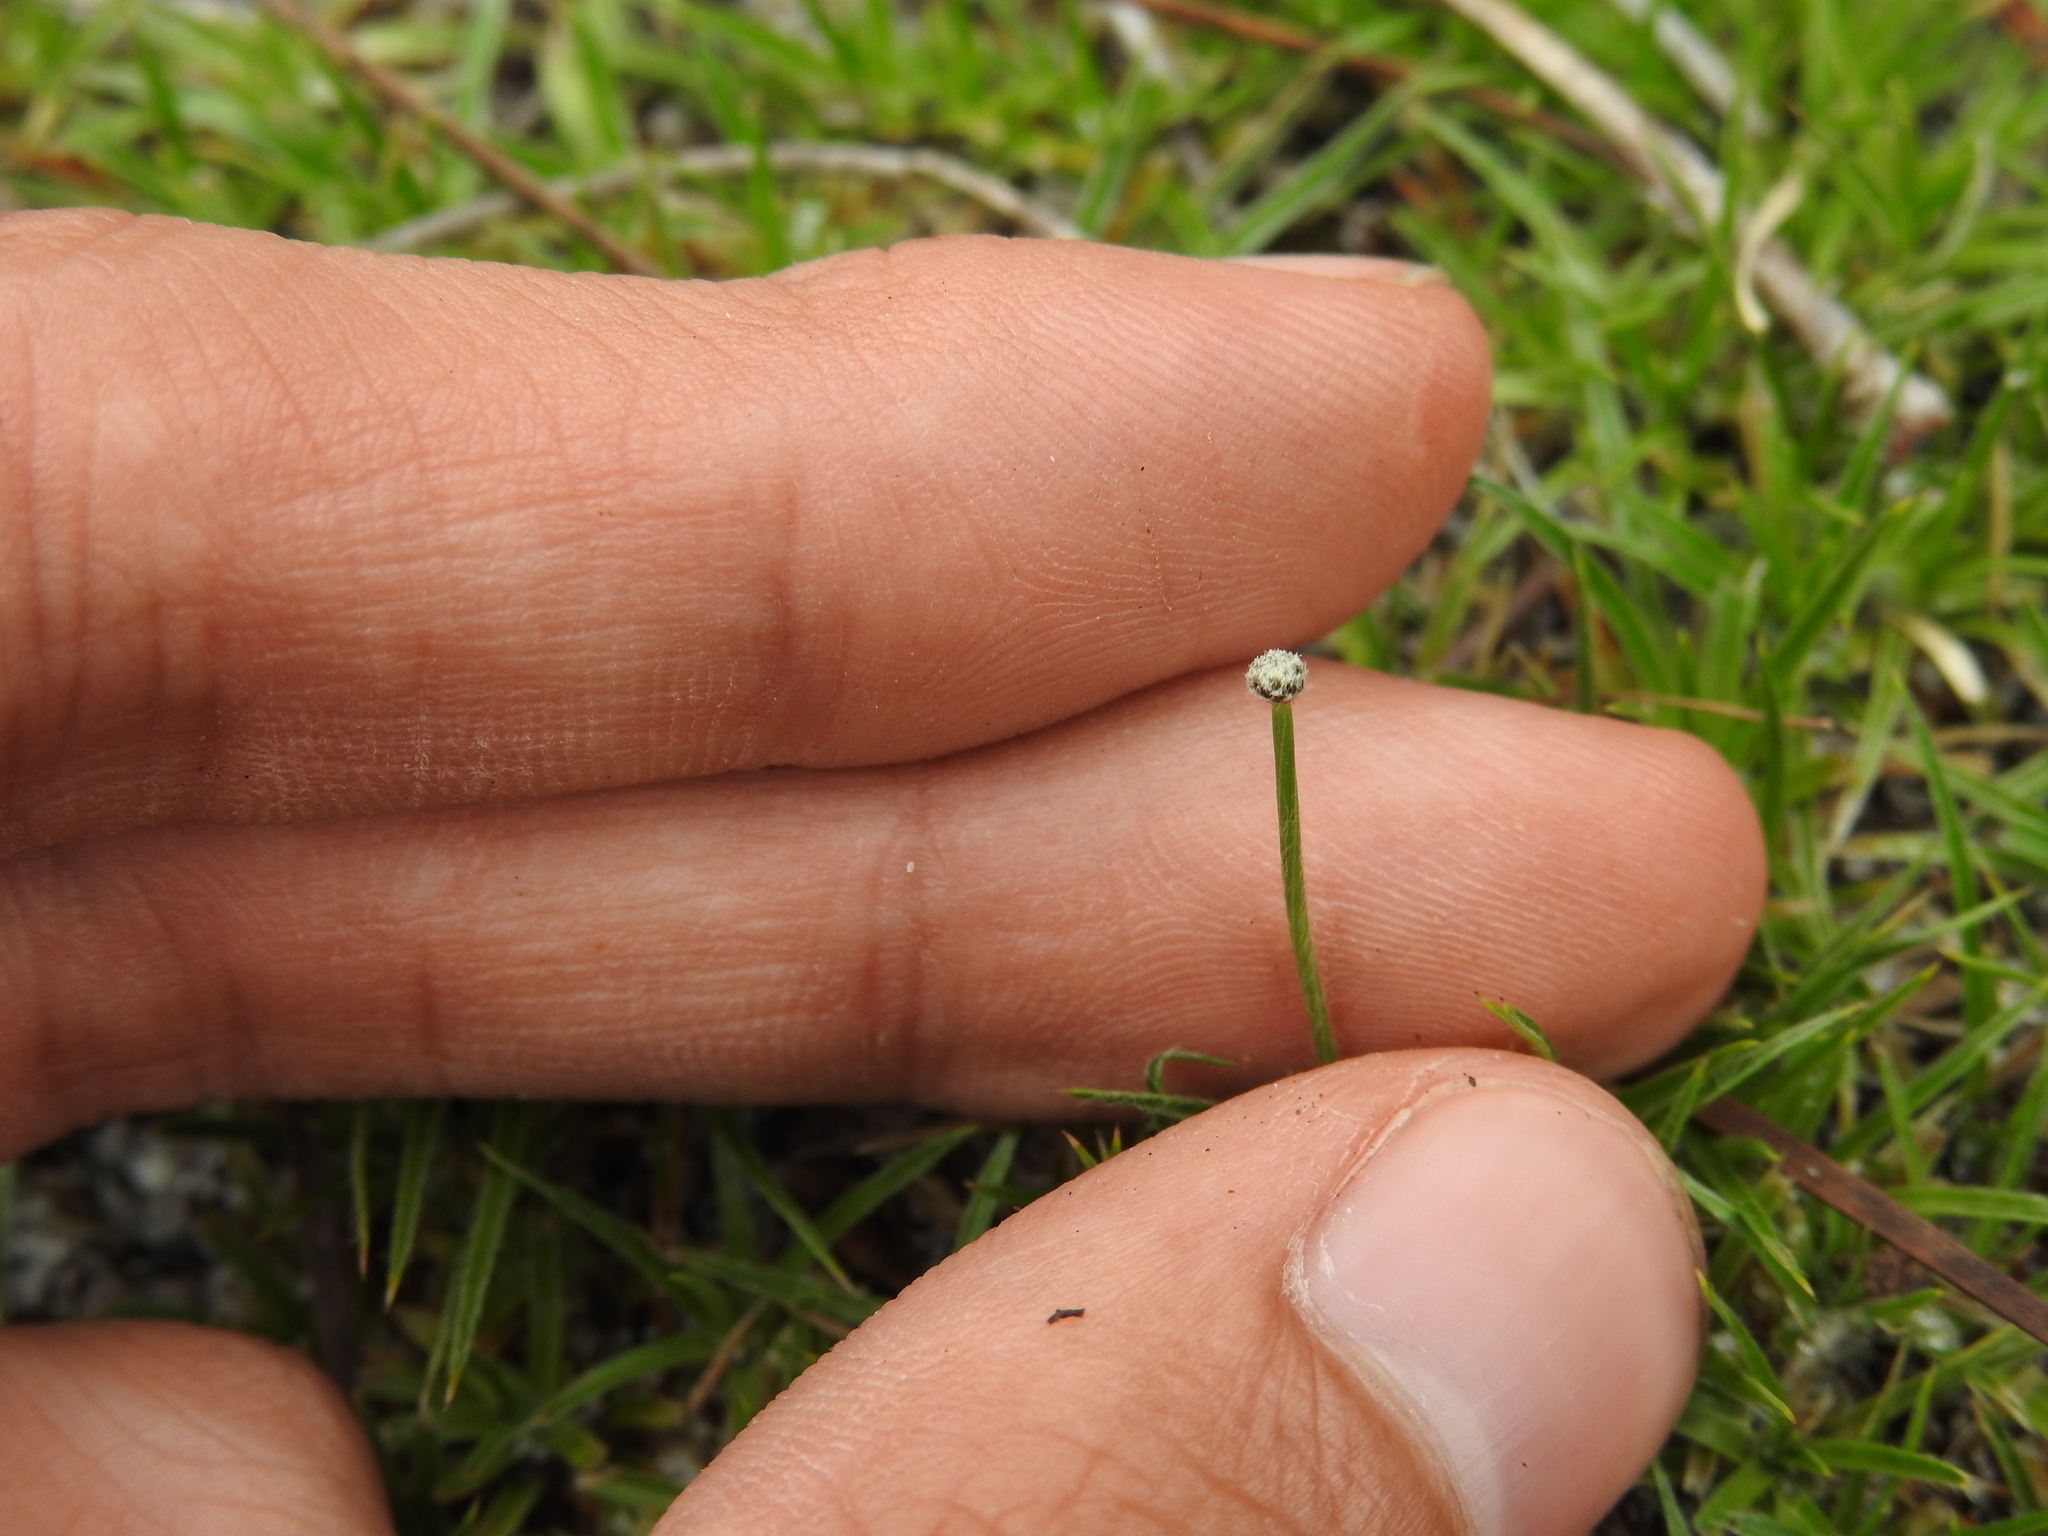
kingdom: Plantae
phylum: Tracheophyta
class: Liliopsida
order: Poales
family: Eriocaulaceae
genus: Paepalanthus
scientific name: Paepalanthus beyrichianus
